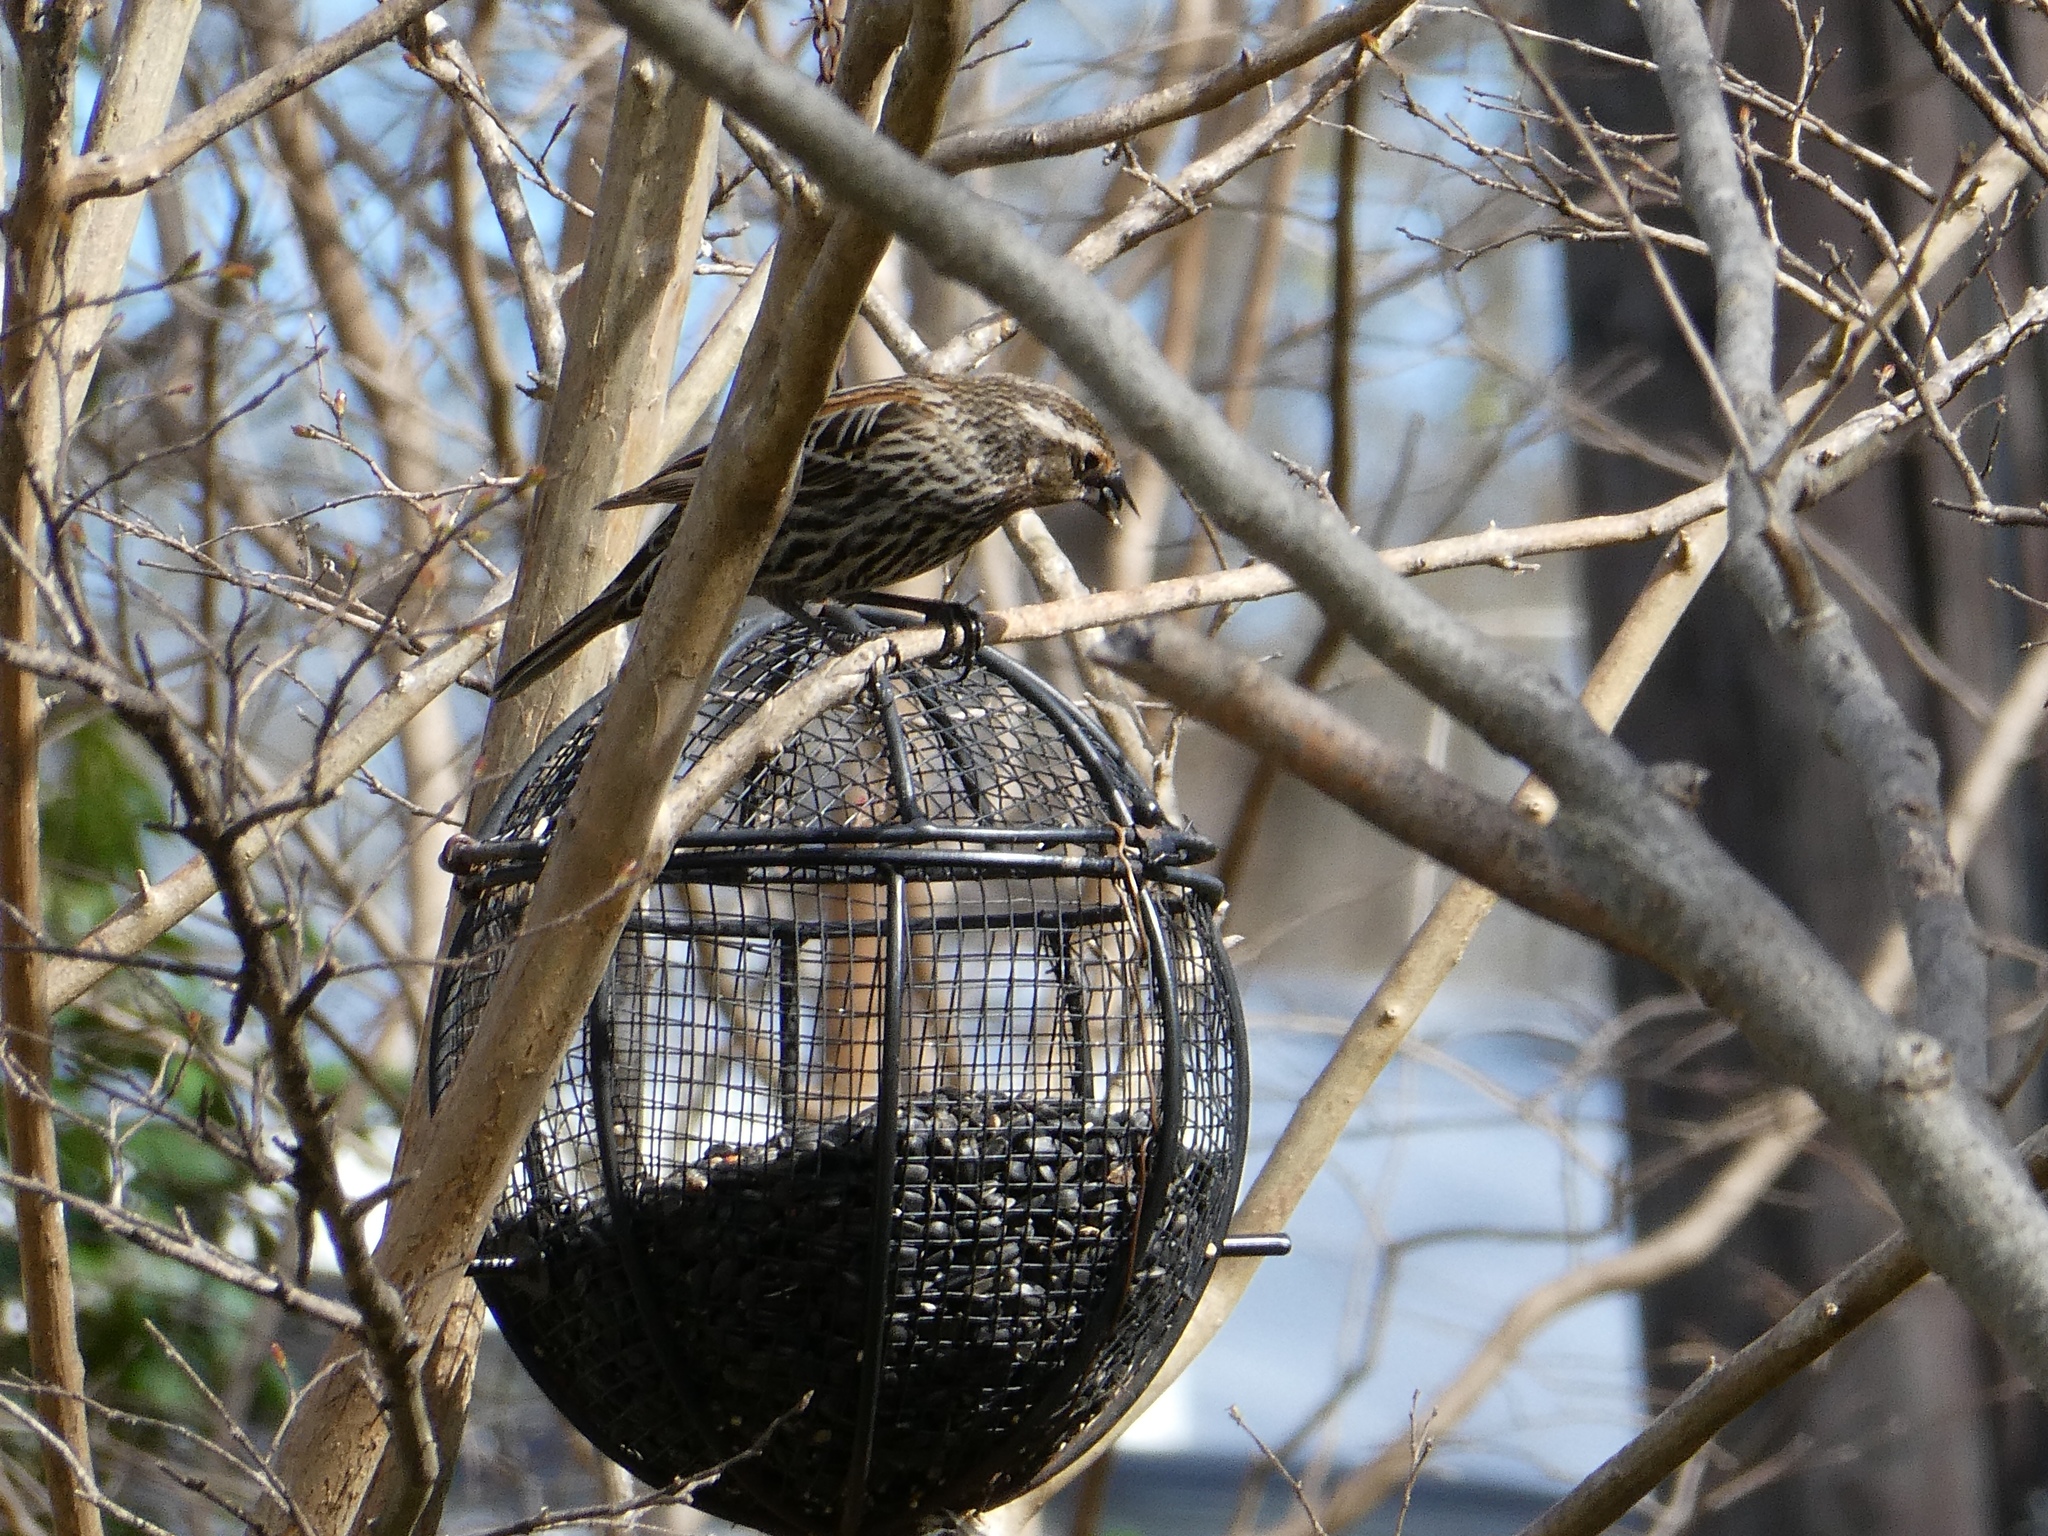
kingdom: Animalia
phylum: Chordata
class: Aves
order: Passeriformes
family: Icteridae
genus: Agelaius
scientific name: Agelaius phoeniceus
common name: Red-winged blackbird
